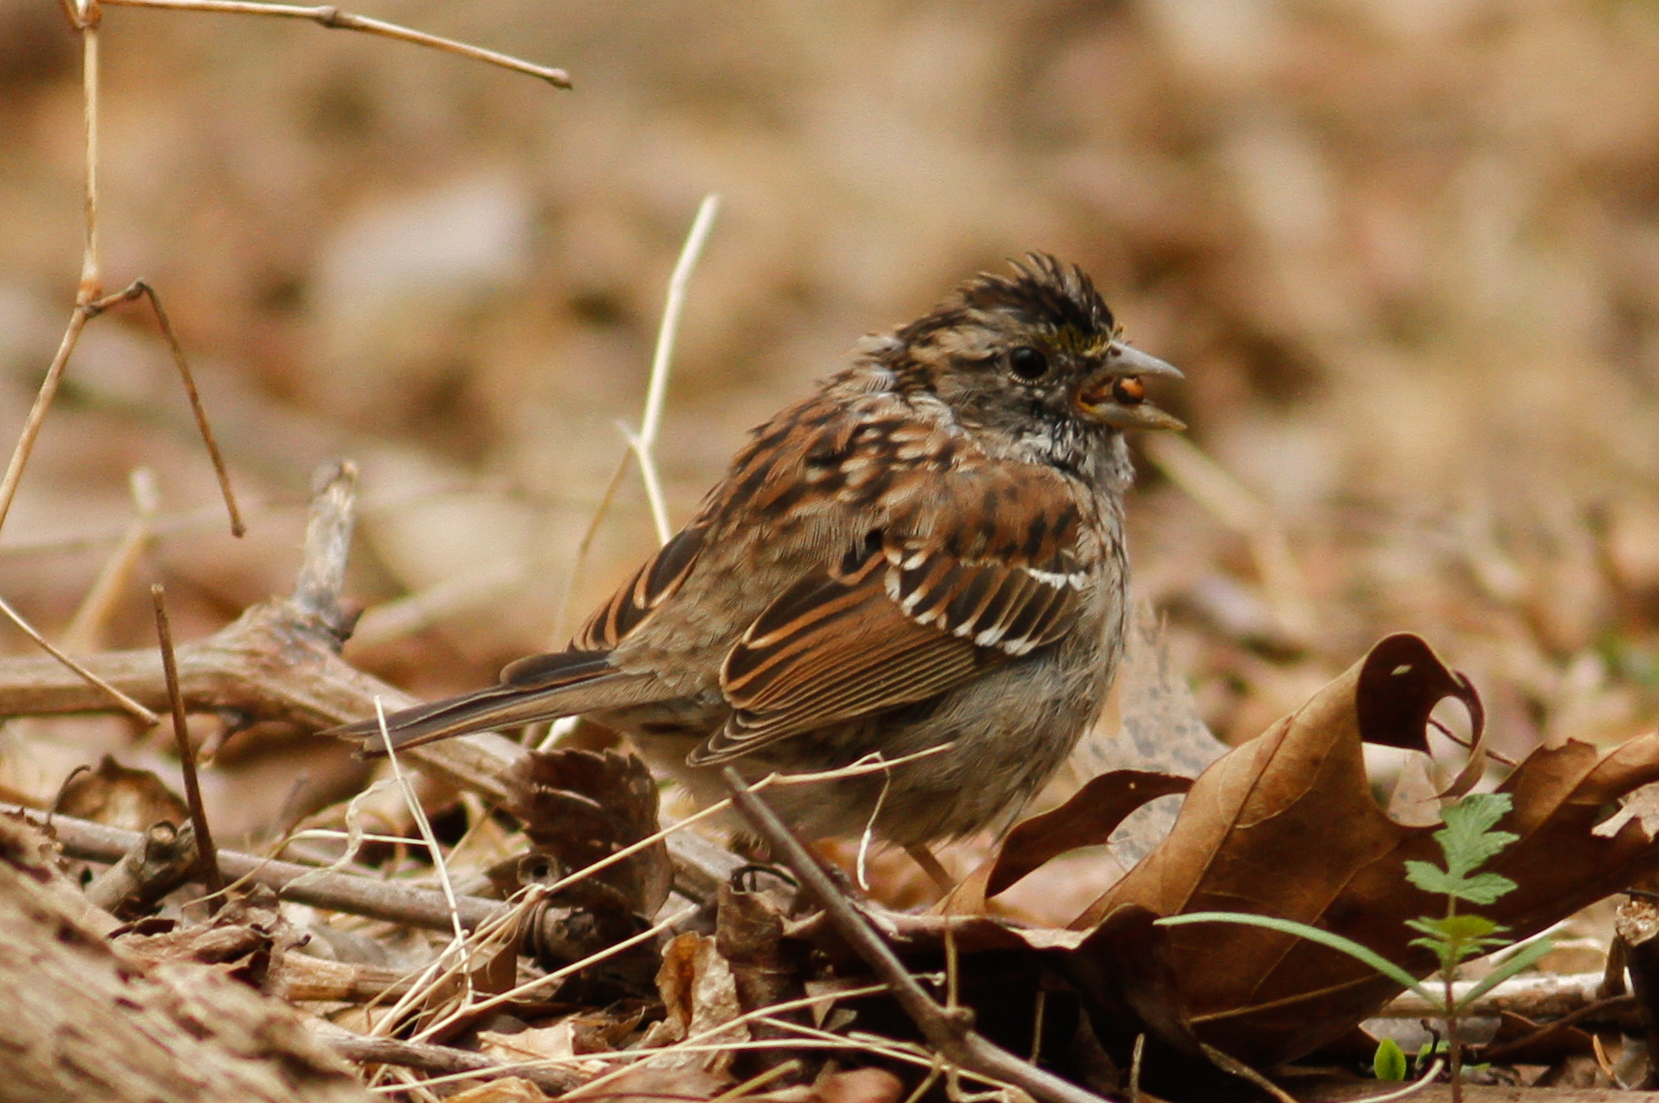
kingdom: Animalia
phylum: Chordata
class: Aves
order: Passeriformes
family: Passerellidae
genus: Zonotrichia
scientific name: Zonotrichia albicollis
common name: White-throated sparrow
